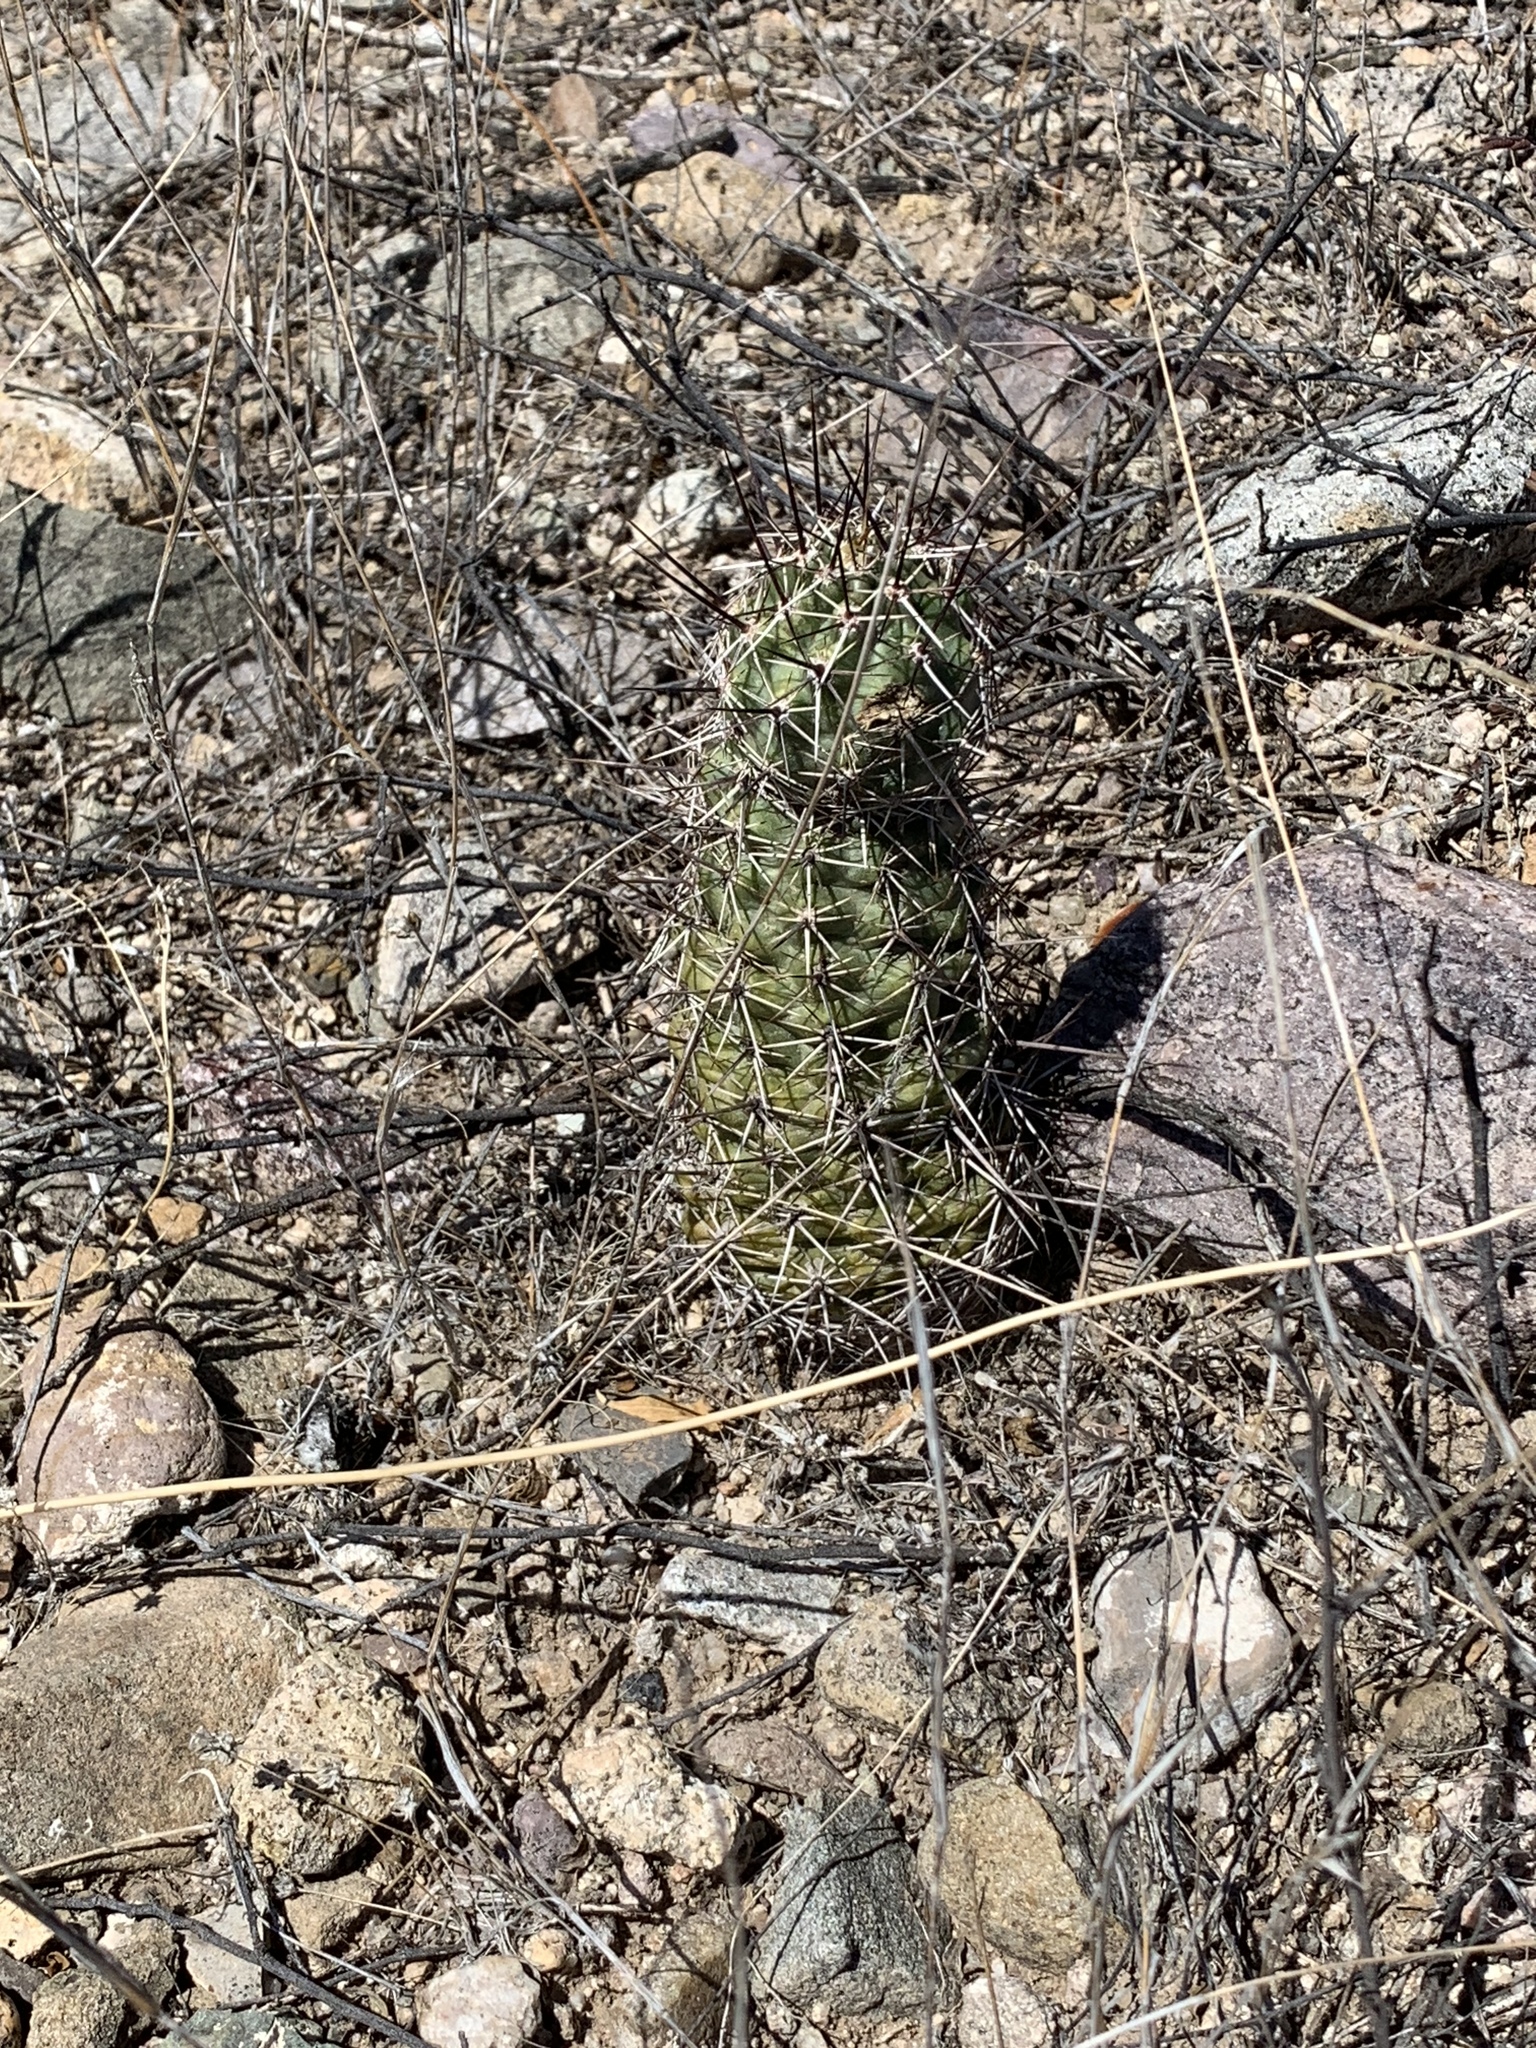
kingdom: Plantae
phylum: Tracheophyta
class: Magnoliopsida
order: Caryophyllales
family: Cactaceae
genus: Echinocereus
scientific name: Echinocereus fasciculatus
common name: Bundle hedgehog
